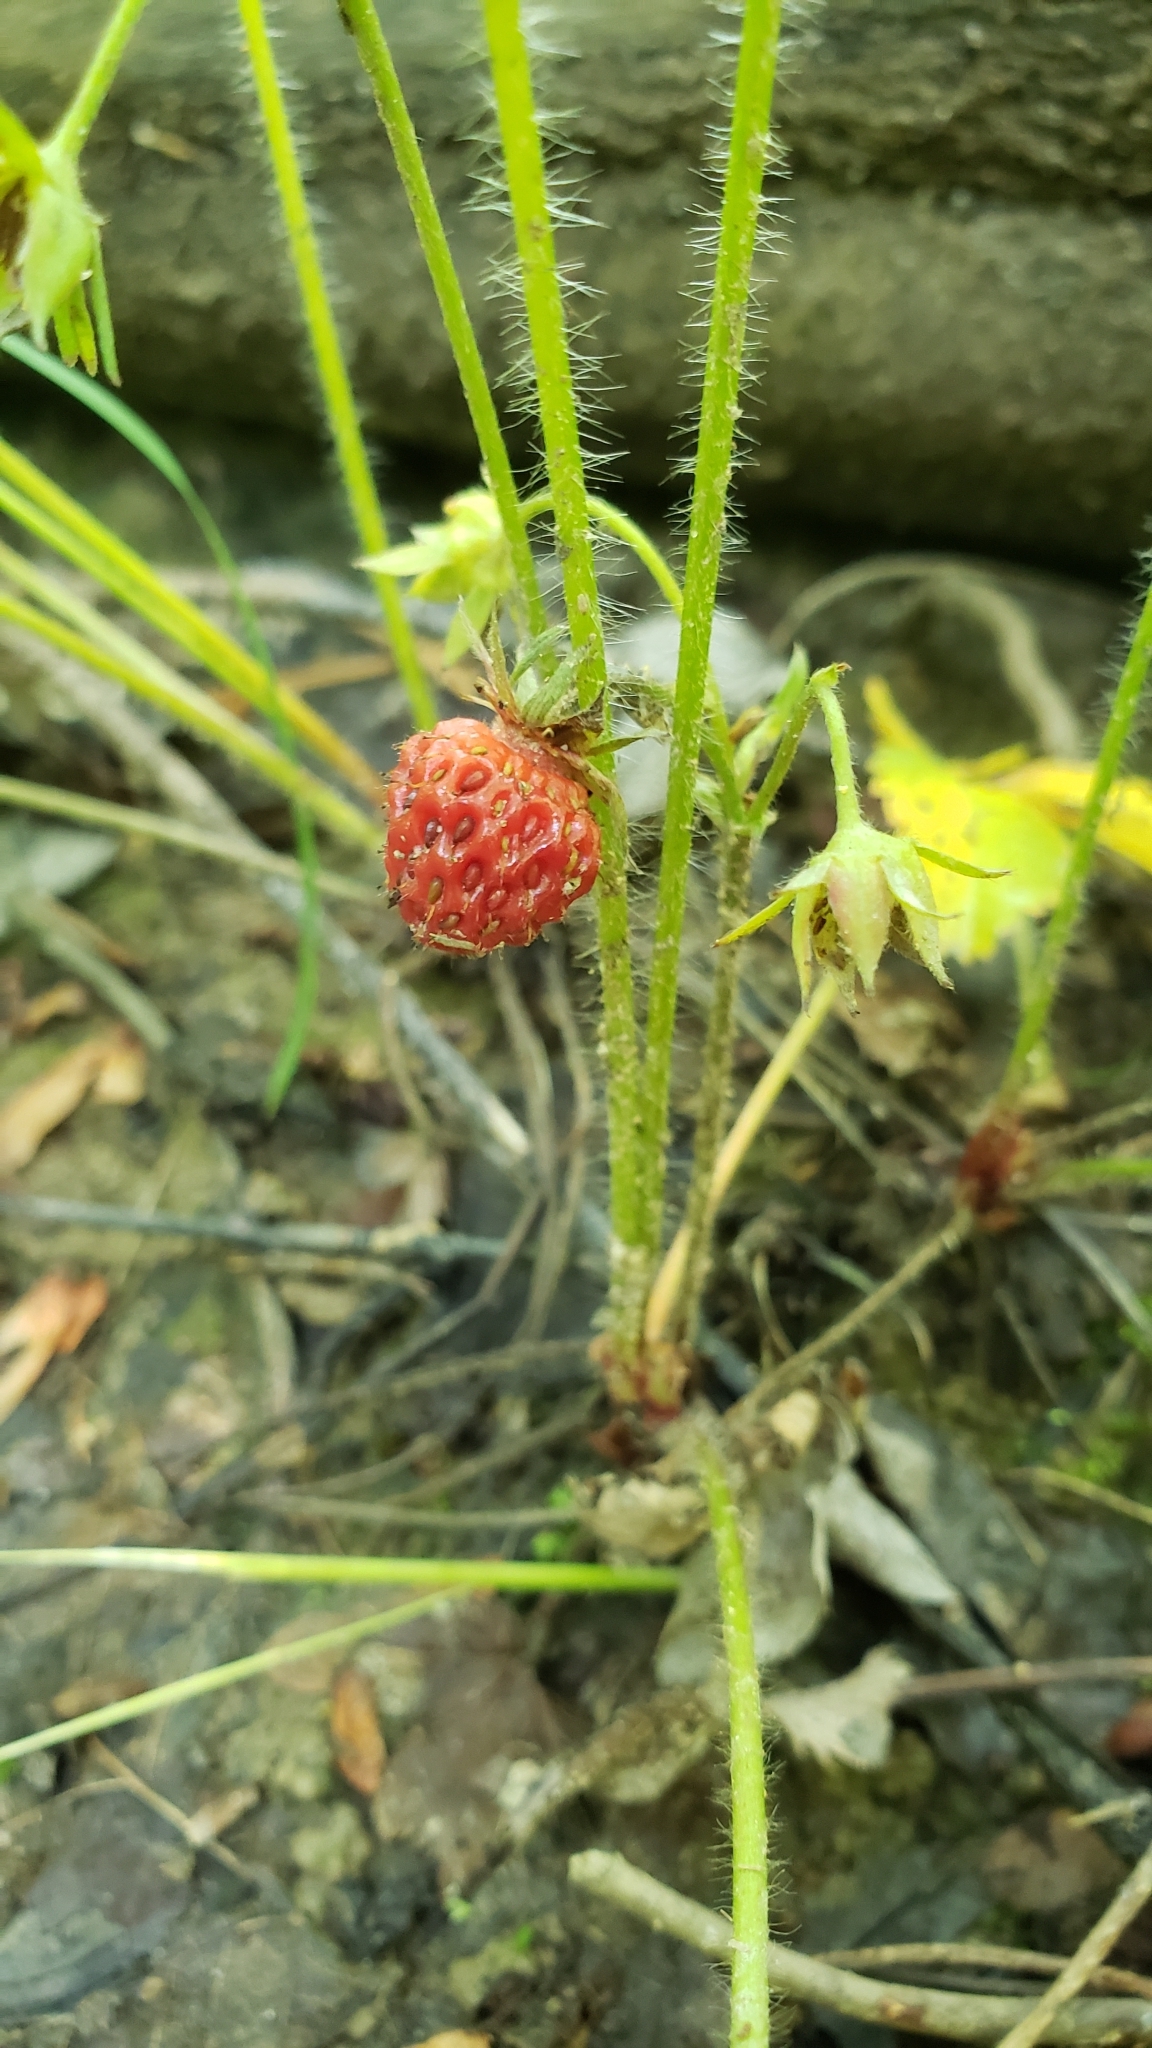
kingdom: Plantae
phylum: Tracheophyta
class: Magnoliopsida
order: Rosales
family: Rosaceae
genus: Fragaria
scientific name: Fragaria virginiana
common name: Thickleaved wild strawberry
